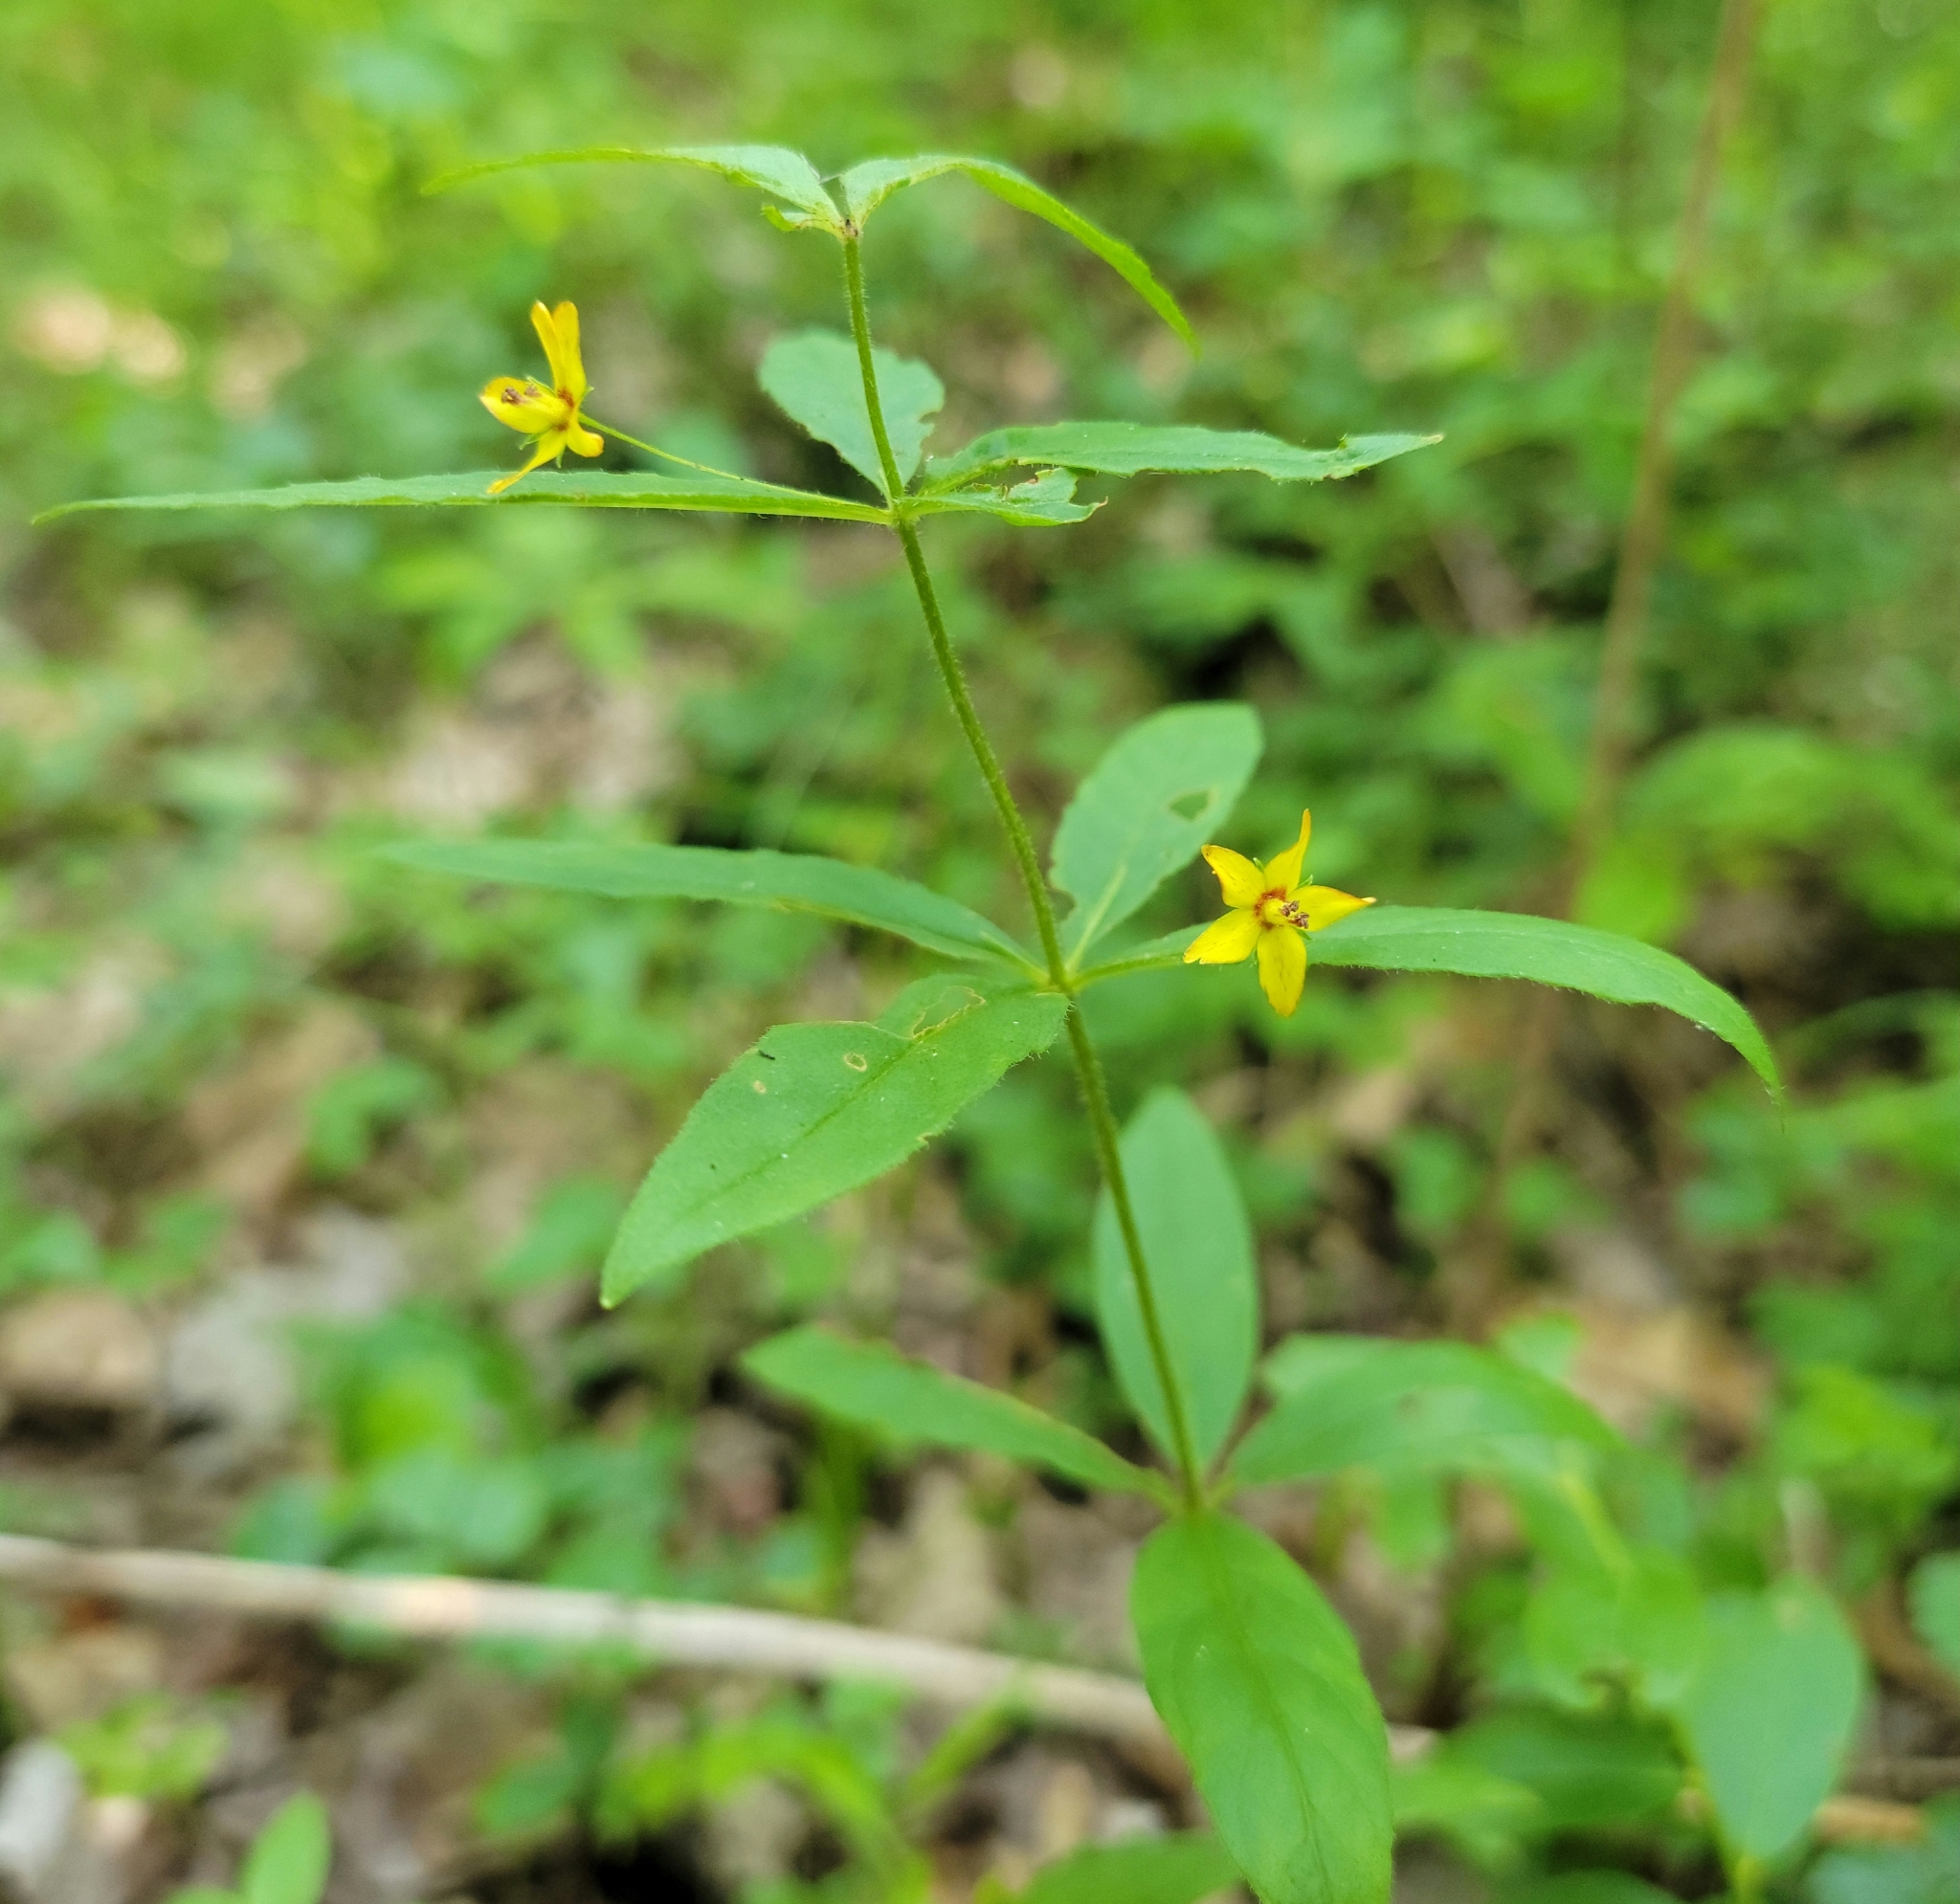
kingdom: Plantae
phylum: Tracheophyta
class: Magnoliopsida
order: Ericales
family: Primulaceae
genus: Lysimachia
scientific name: Lysimachia quadrifolia
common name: Whorled loosestrife
